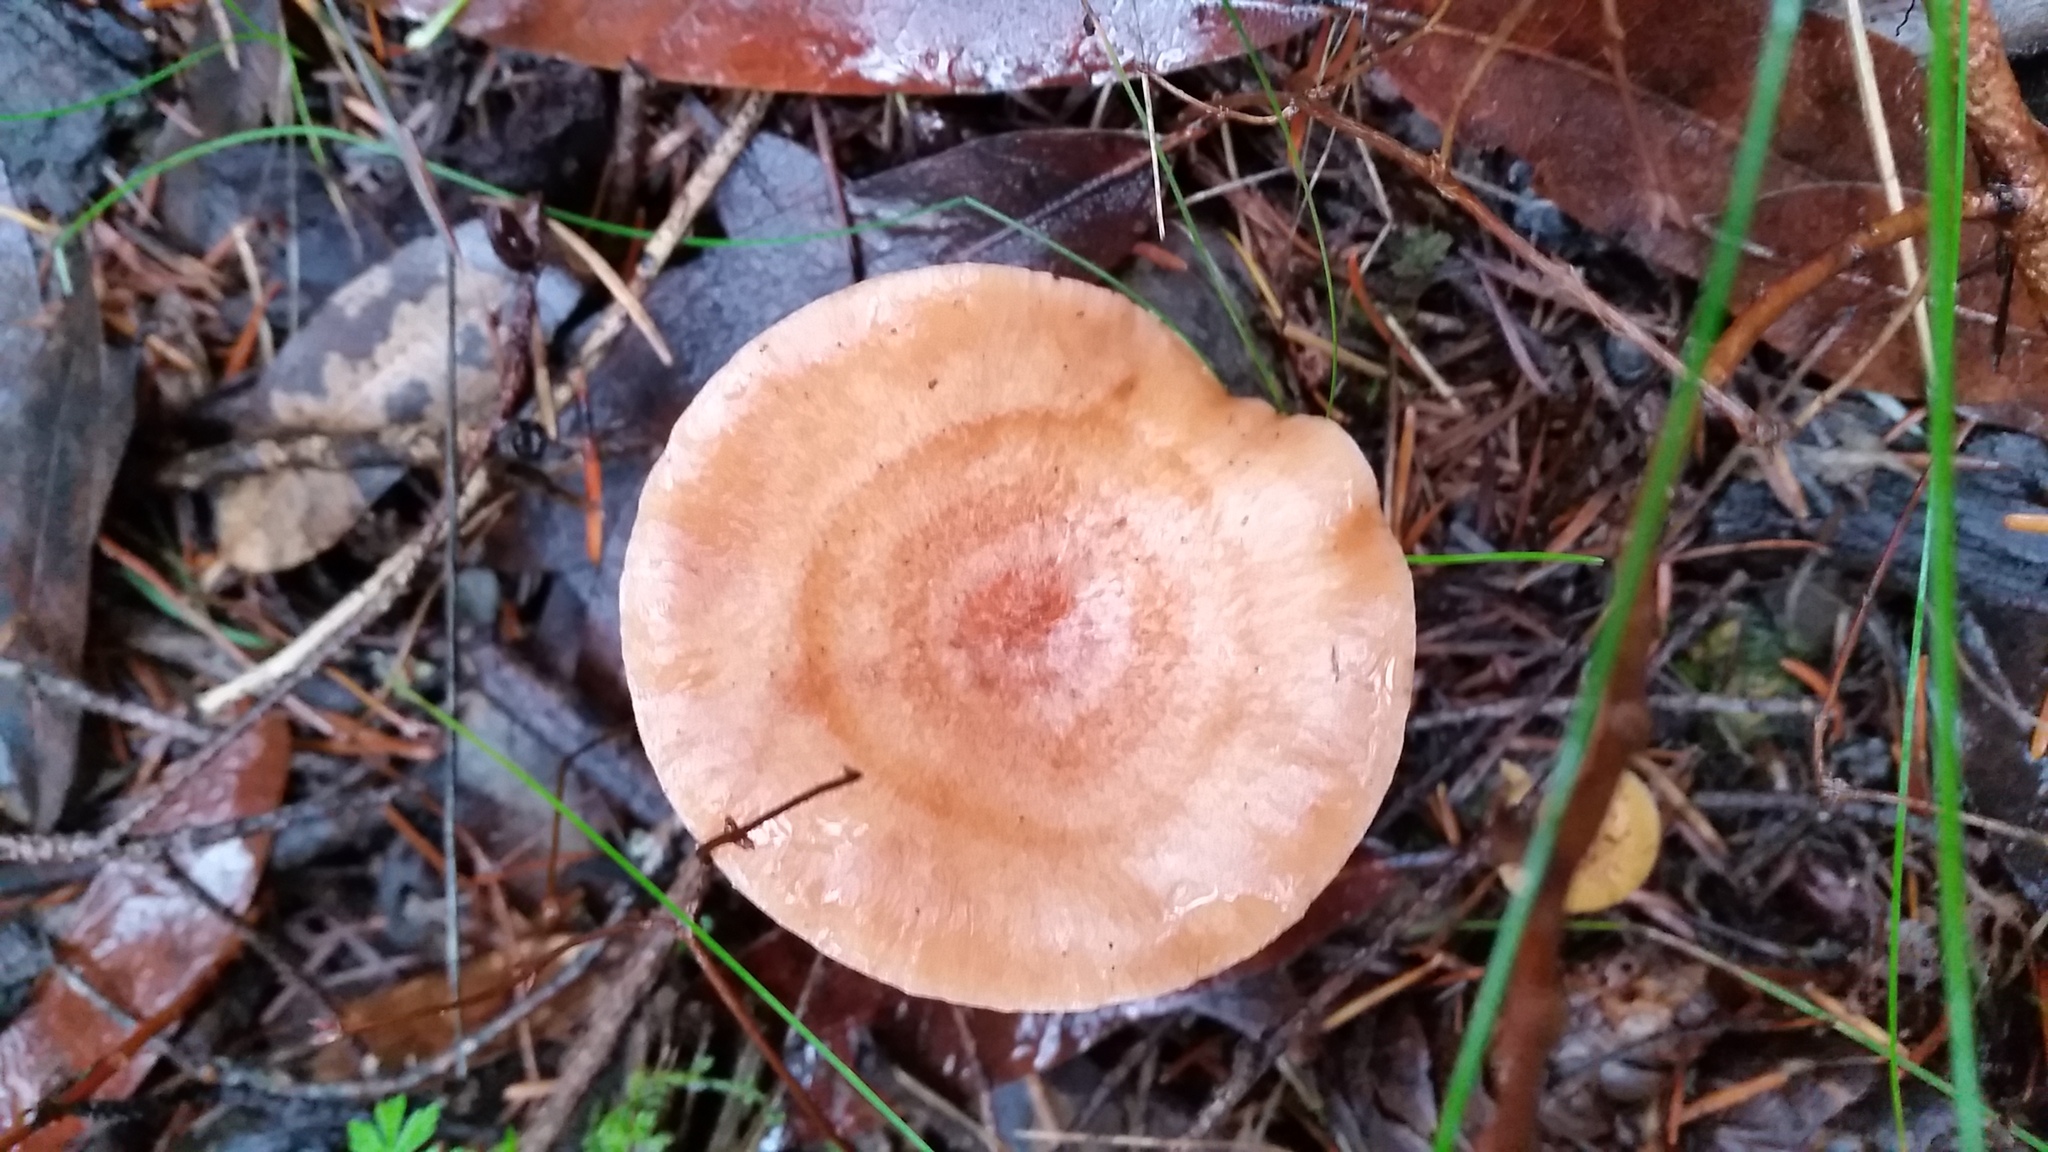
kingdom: Fungi
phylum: Basidiomycota
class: Agaricomycetes
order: Russulales
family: Russulaceae
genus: Lactarius
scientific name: Lactarius xanthogalactus
